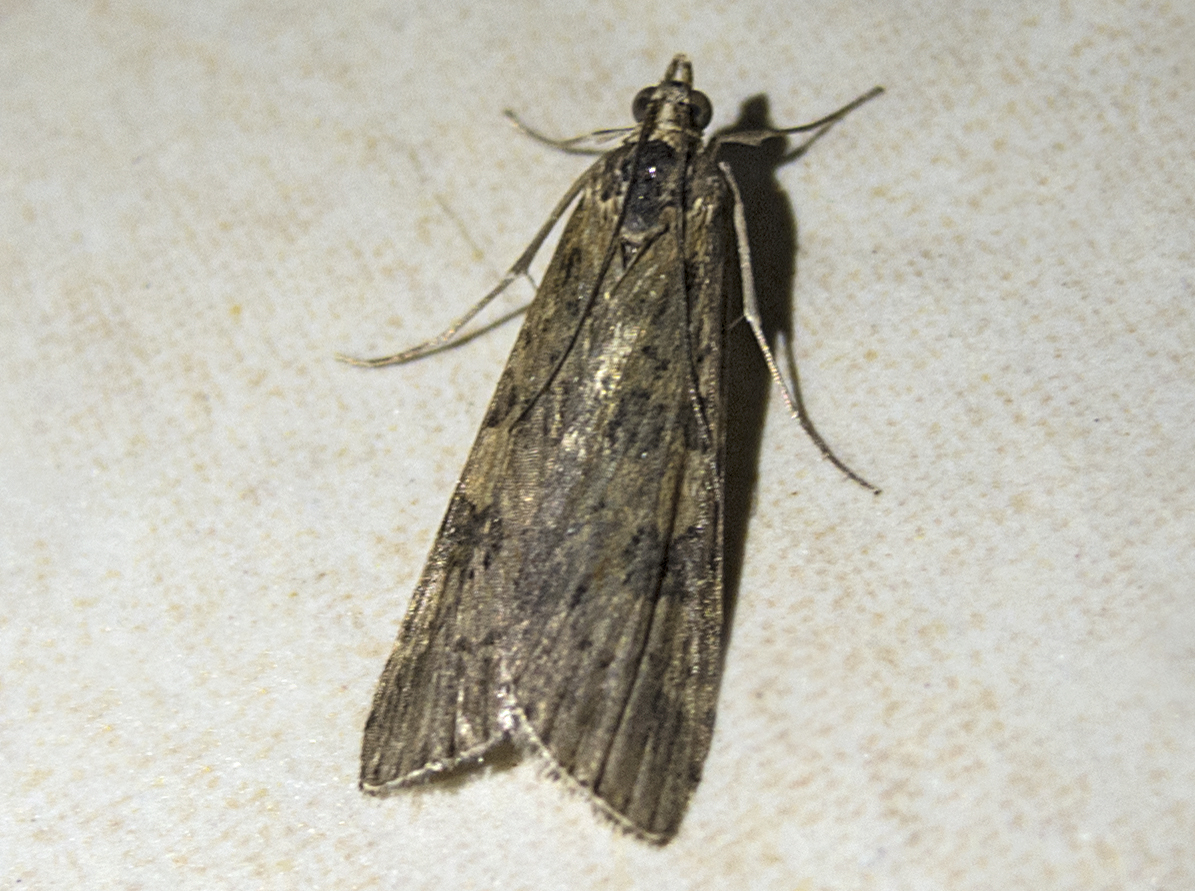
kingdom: Animalia
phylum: Arthropoda
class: Insecta
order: Lepidoptera
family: Crambidae
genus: Nomophila
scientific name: Nomophila noctuella
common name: Rush veneer
